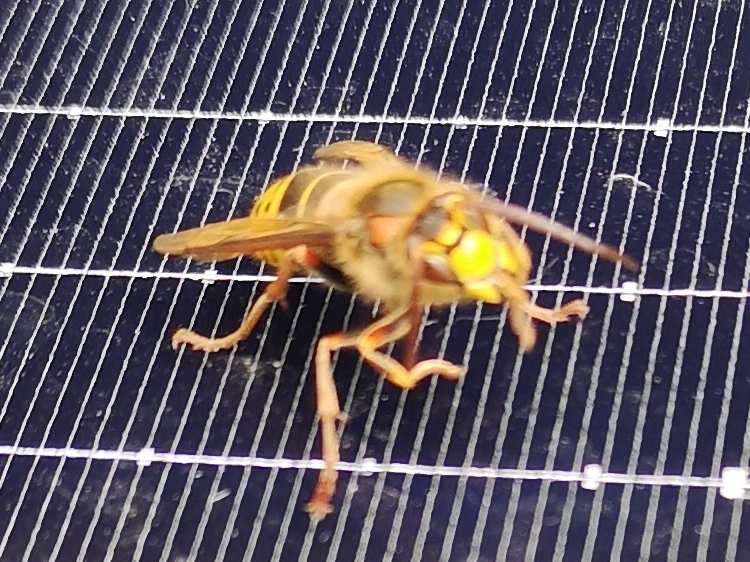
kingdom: Animalia
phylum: Arthropoda
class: Insecta
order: Hymenoptera
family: Vespidae
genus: Vespa
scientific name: Vespa crabro
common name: Hornet
